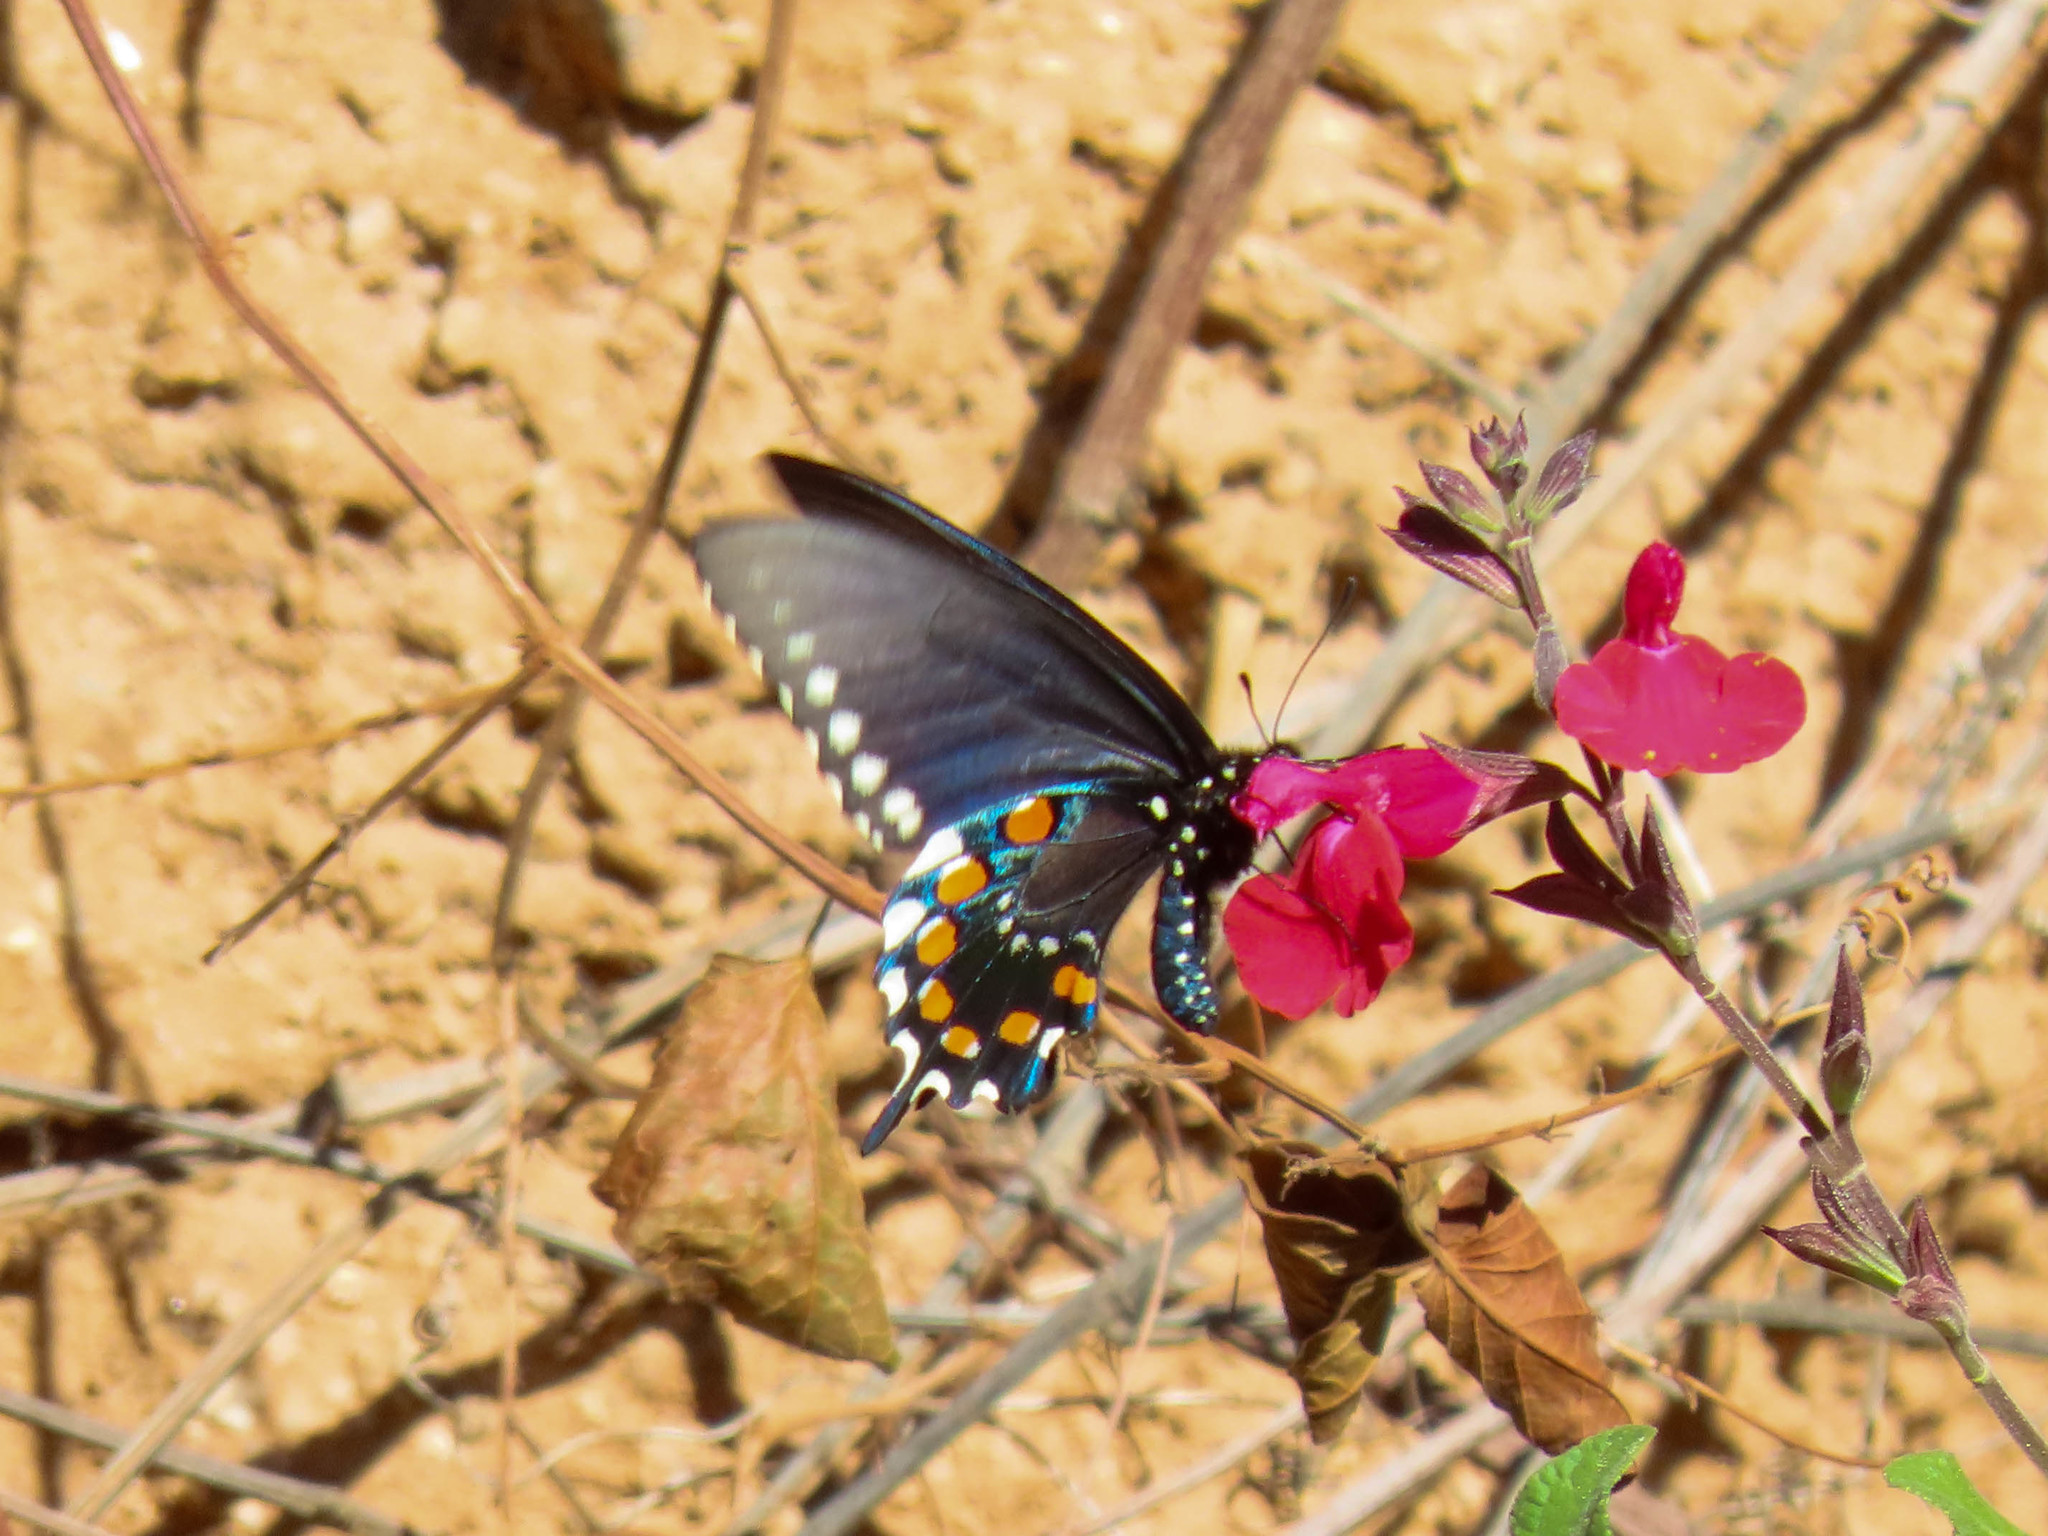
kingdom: Animalia
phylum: Arthropoda
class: Insecta
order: Lepidoptera
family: Papilionidae
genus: Battus
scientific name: Battus philenor
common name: Pipevine swallowtail
